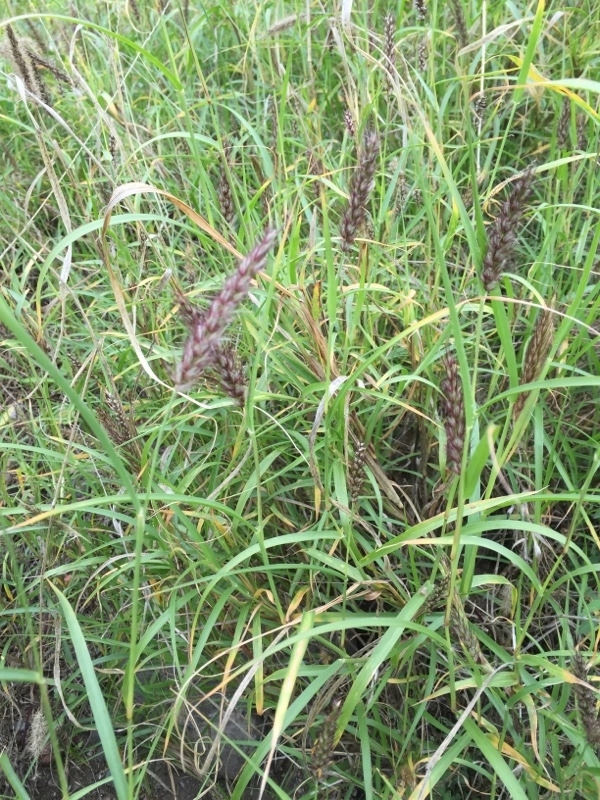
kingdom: Plantae
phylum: Tracheophyta
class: Liliopsida
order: Poales
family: Poaceae
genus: Cenchrus
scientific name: Cenchrus ciliaris
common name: Buffelgrass
